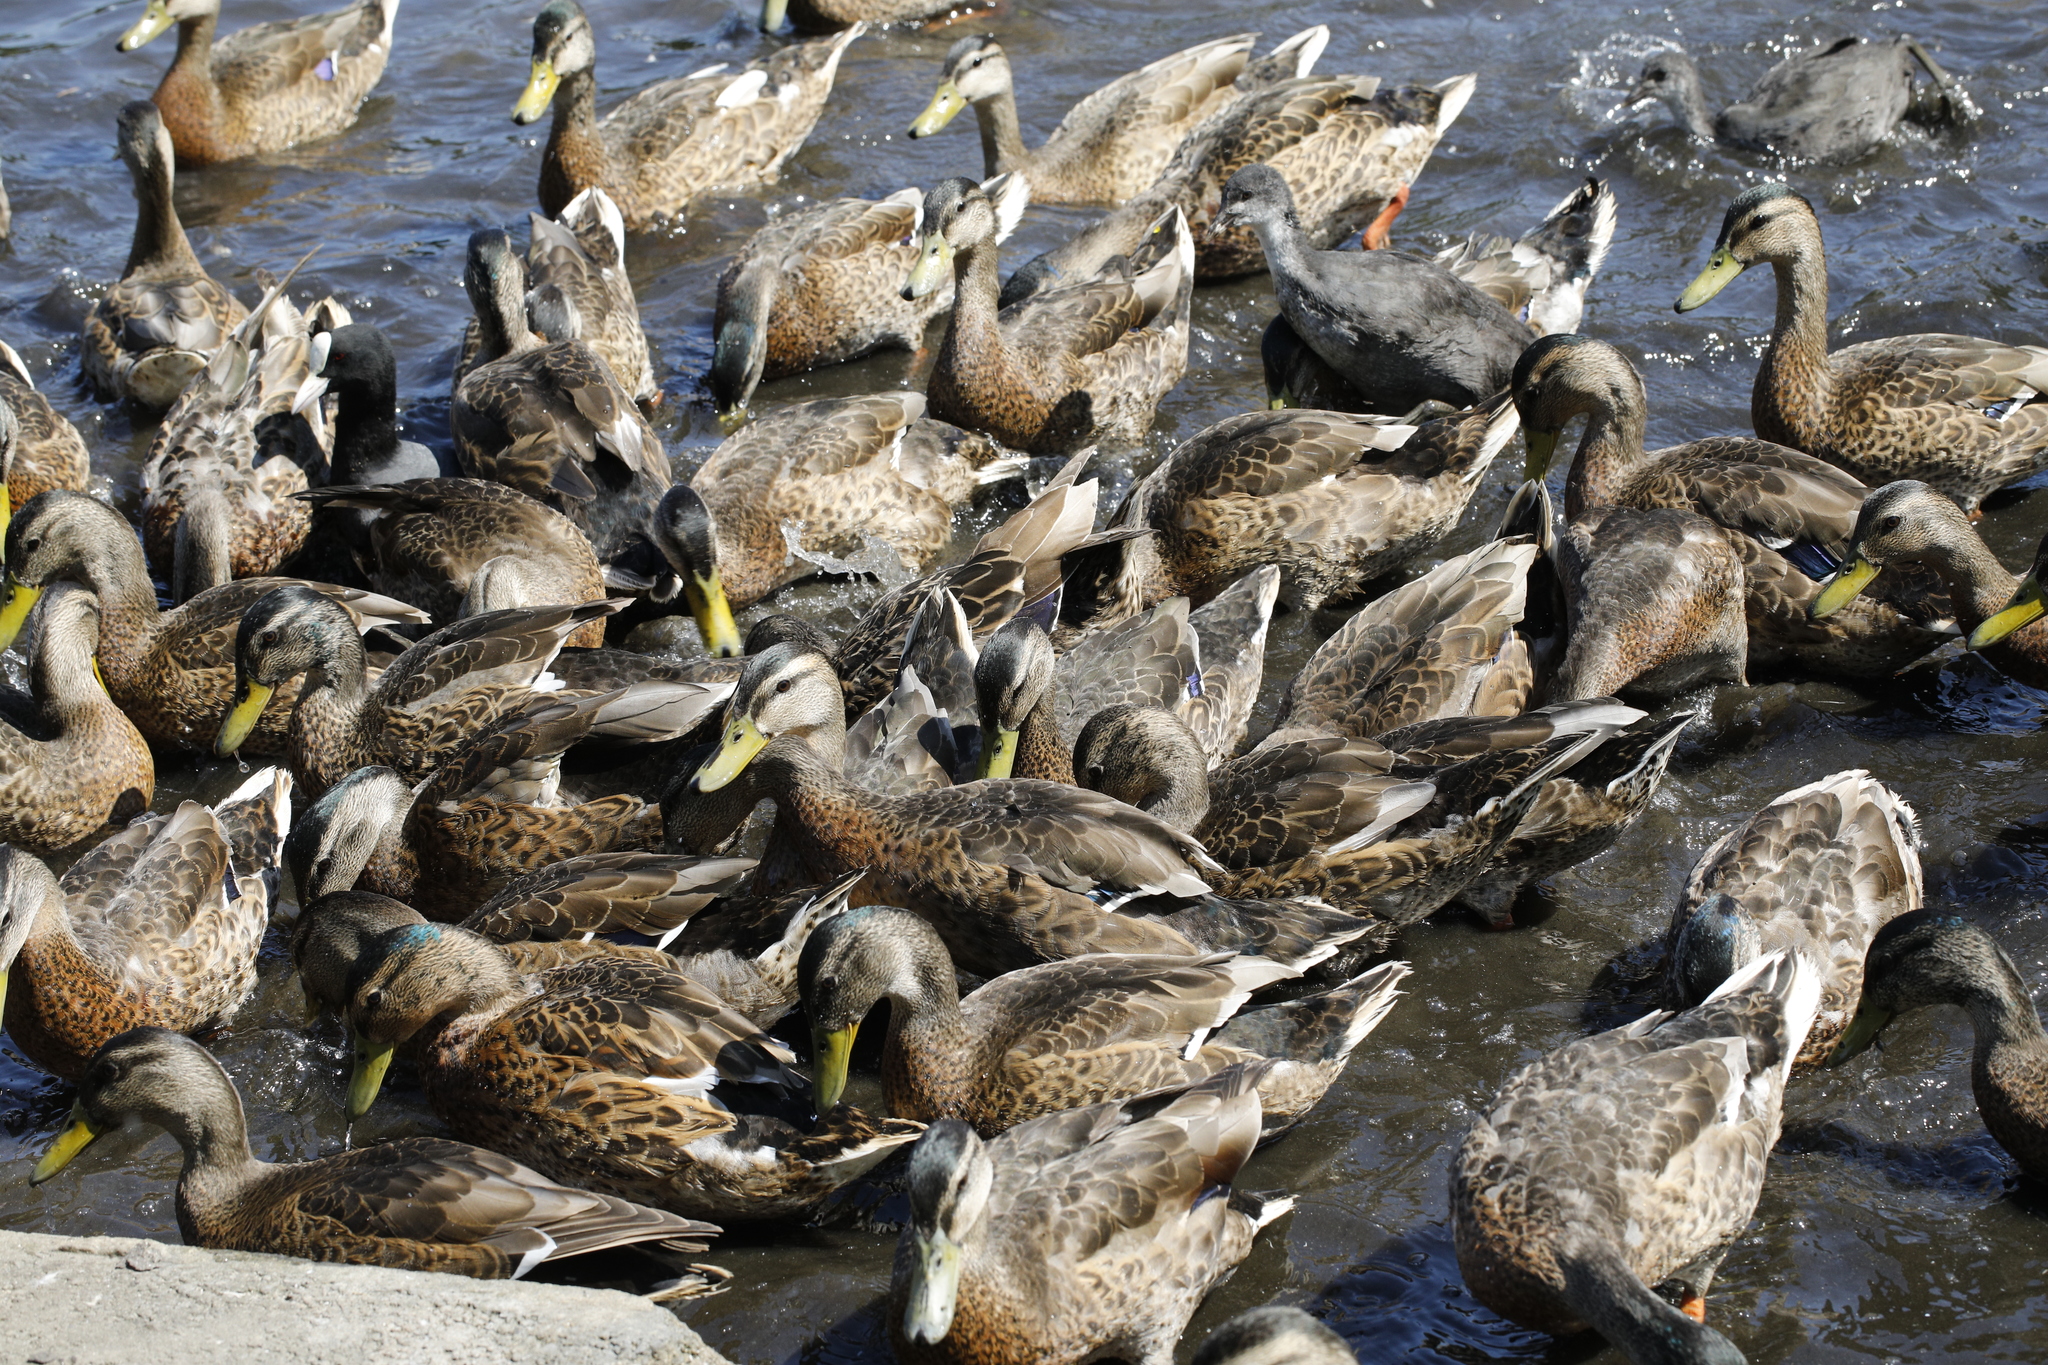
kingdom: Animalia
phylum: Chordata
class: Aves
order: Anseriformes
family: Anatidae
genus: Anas
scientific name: Anas platyrhynchos
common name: Mallard
